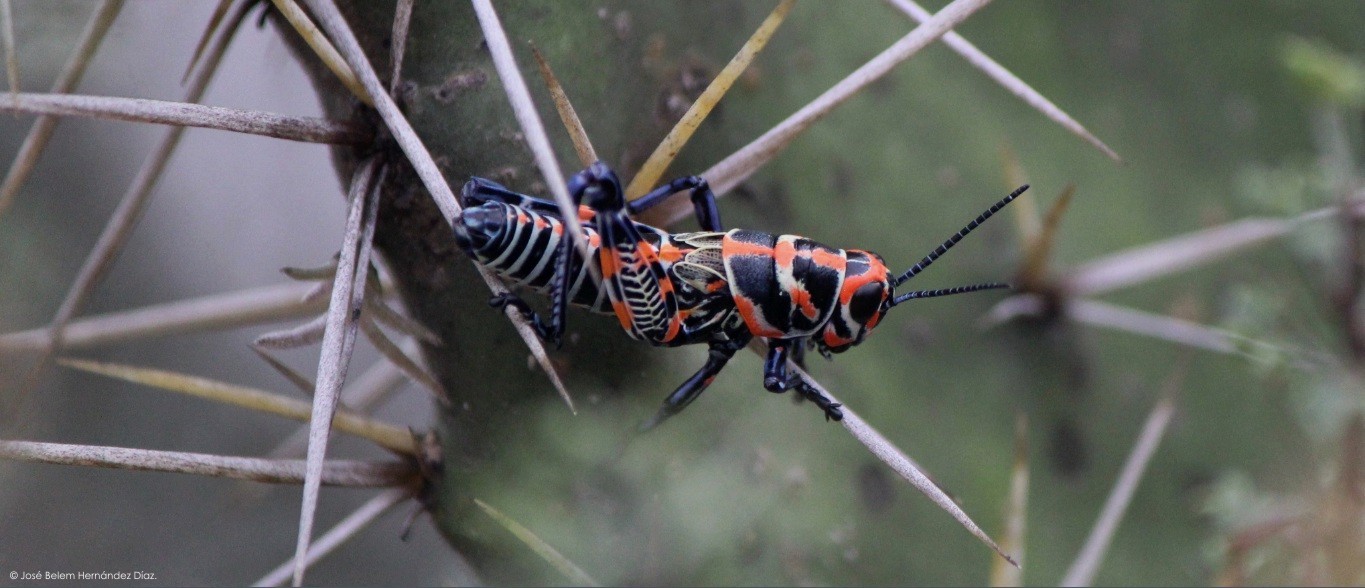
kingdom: Animalia
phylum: Arthropoda
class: Insecta
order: Orthoptera
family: Acrididae
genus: Dactylotum
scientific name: Dactylotum bicolor
